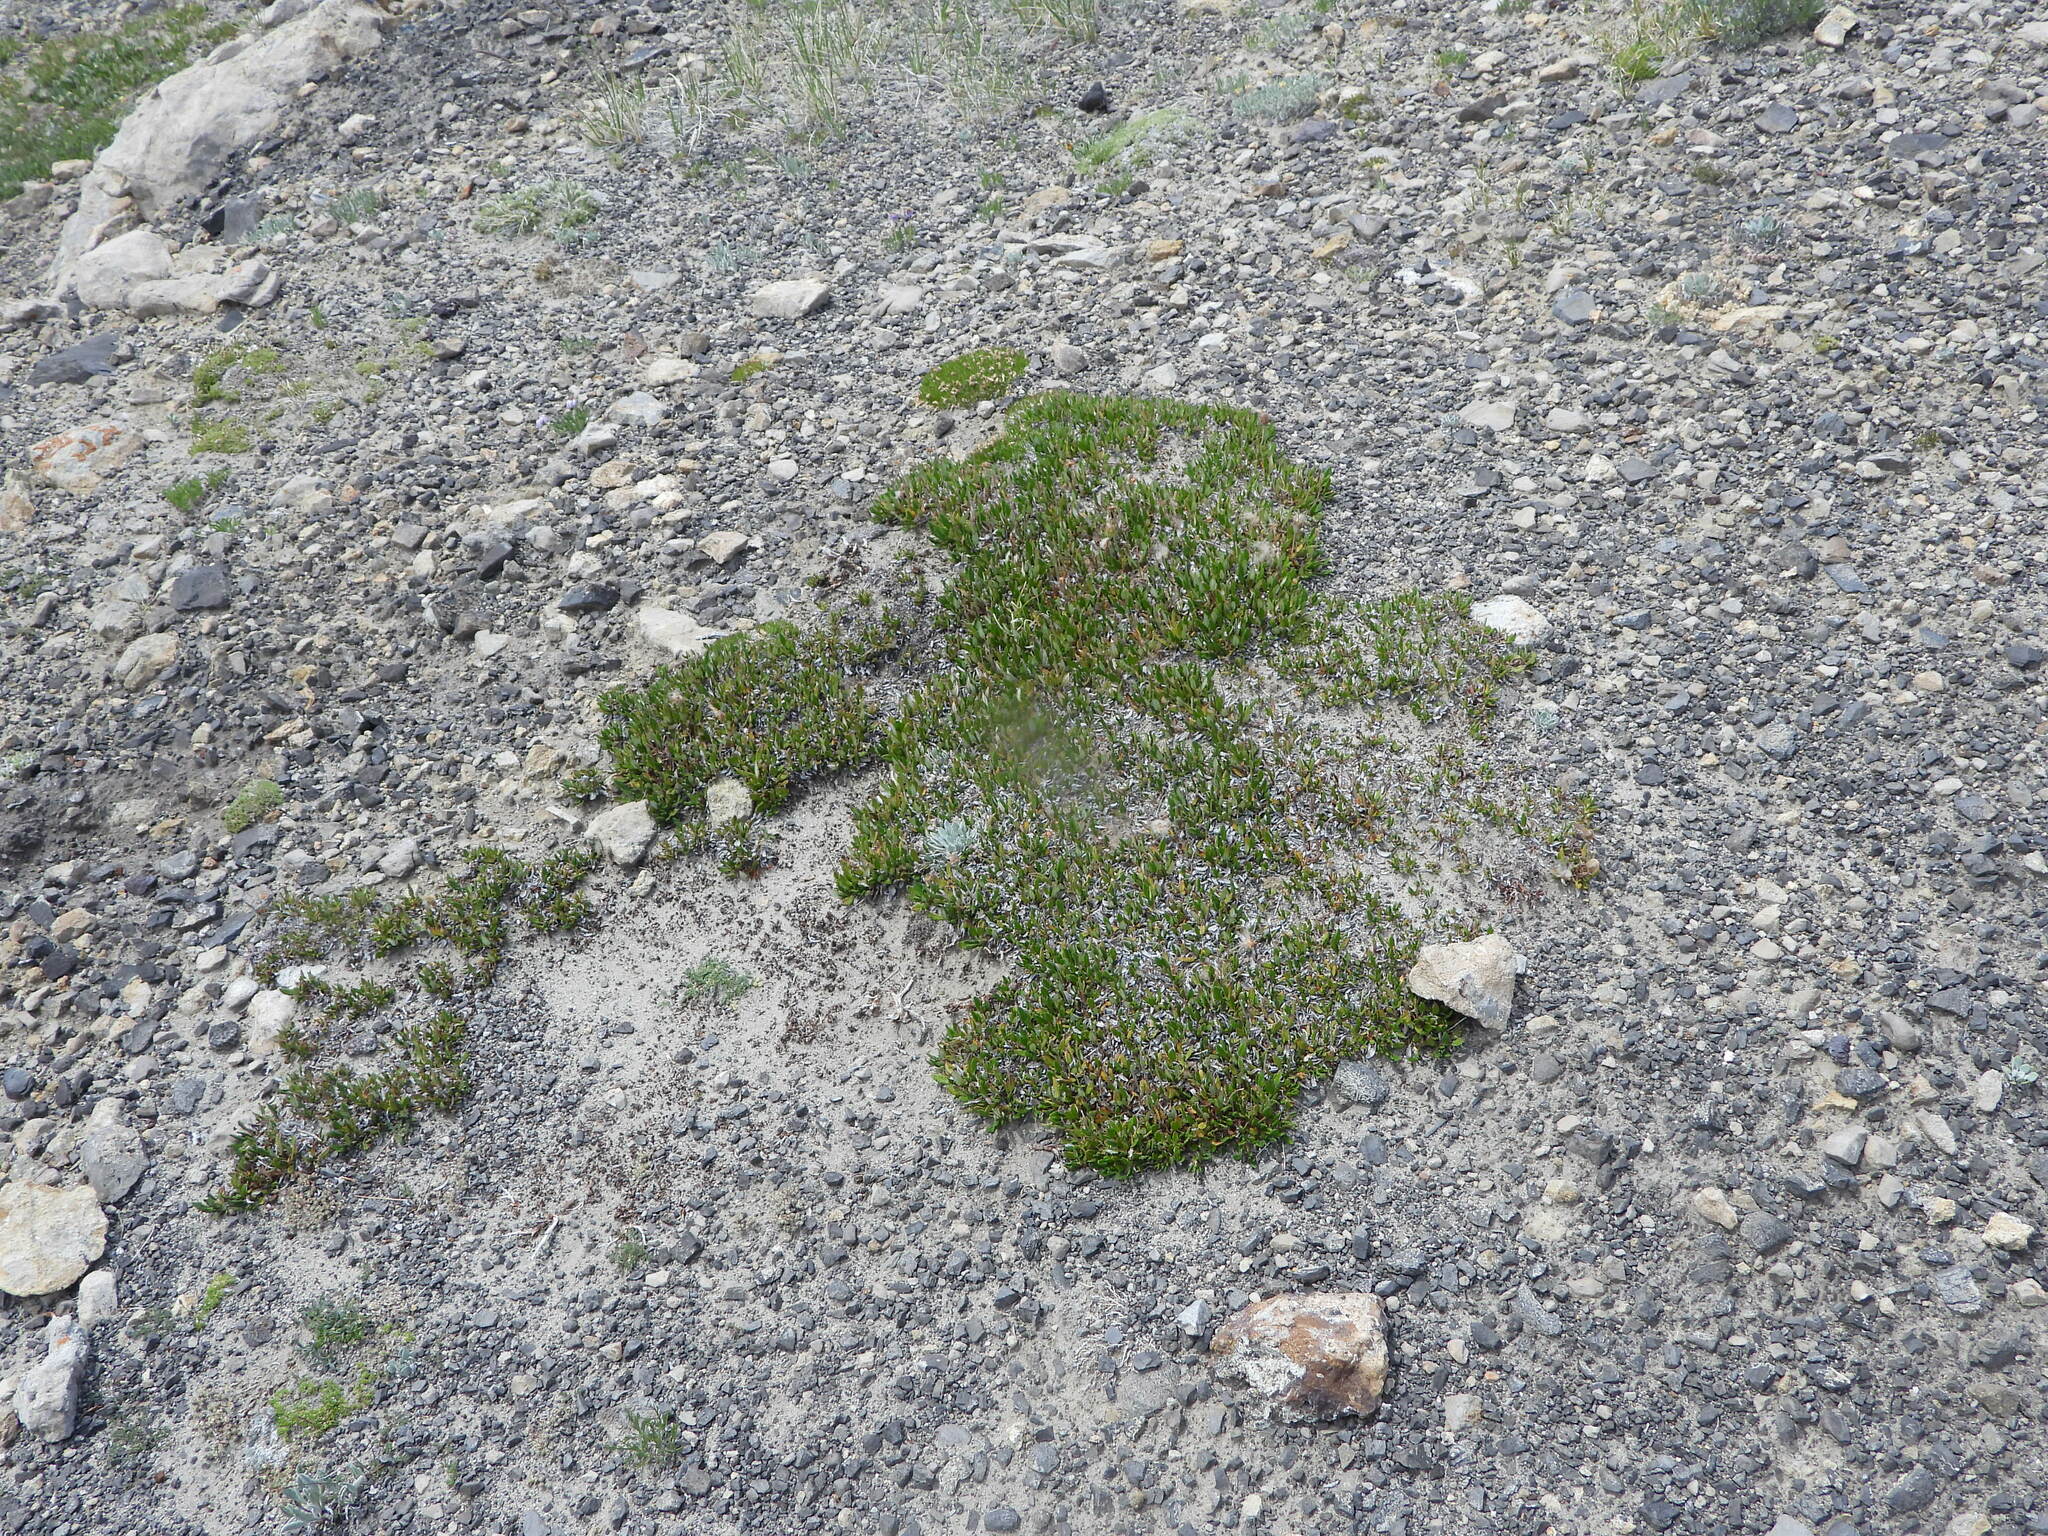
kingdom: Plantae
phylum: Tracheophyta
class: Magnoliopsida
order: Rosales
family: Rosaceae
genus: Dryas
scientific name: Dryas octopetala
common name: Eight-petal mountain-avens
